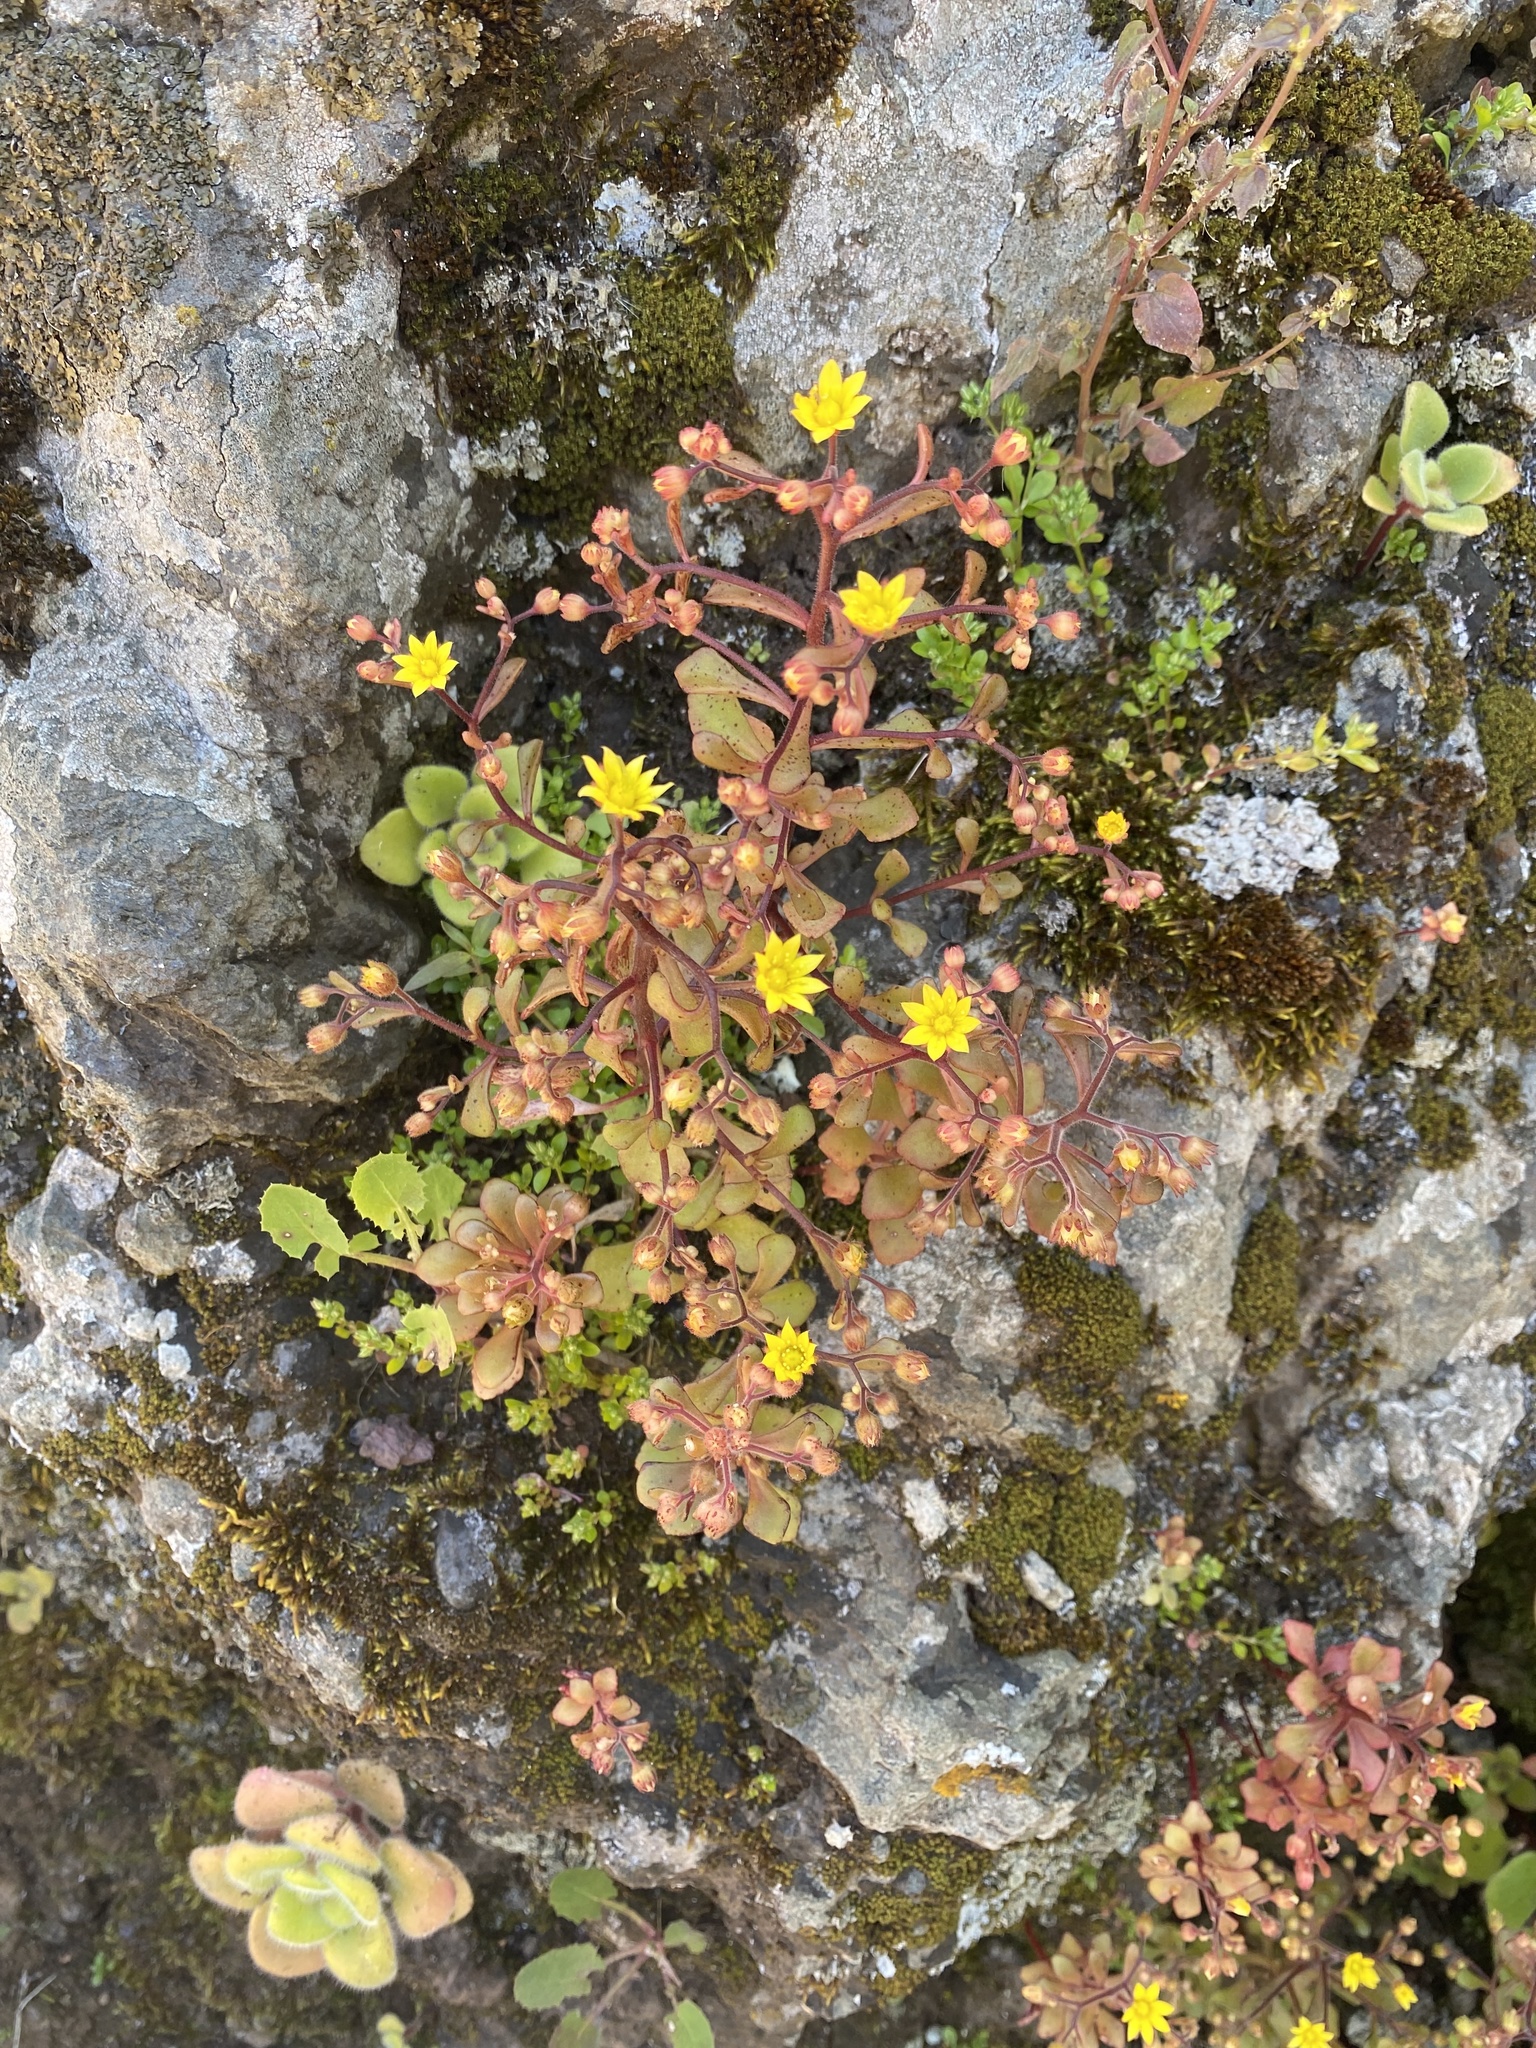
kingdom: Plantae
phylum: Tracheophyta
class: Magnoliopsida
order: Saxifragales
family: Crassulaceae
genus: Aichryson
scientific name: Aichryson parlatorei
